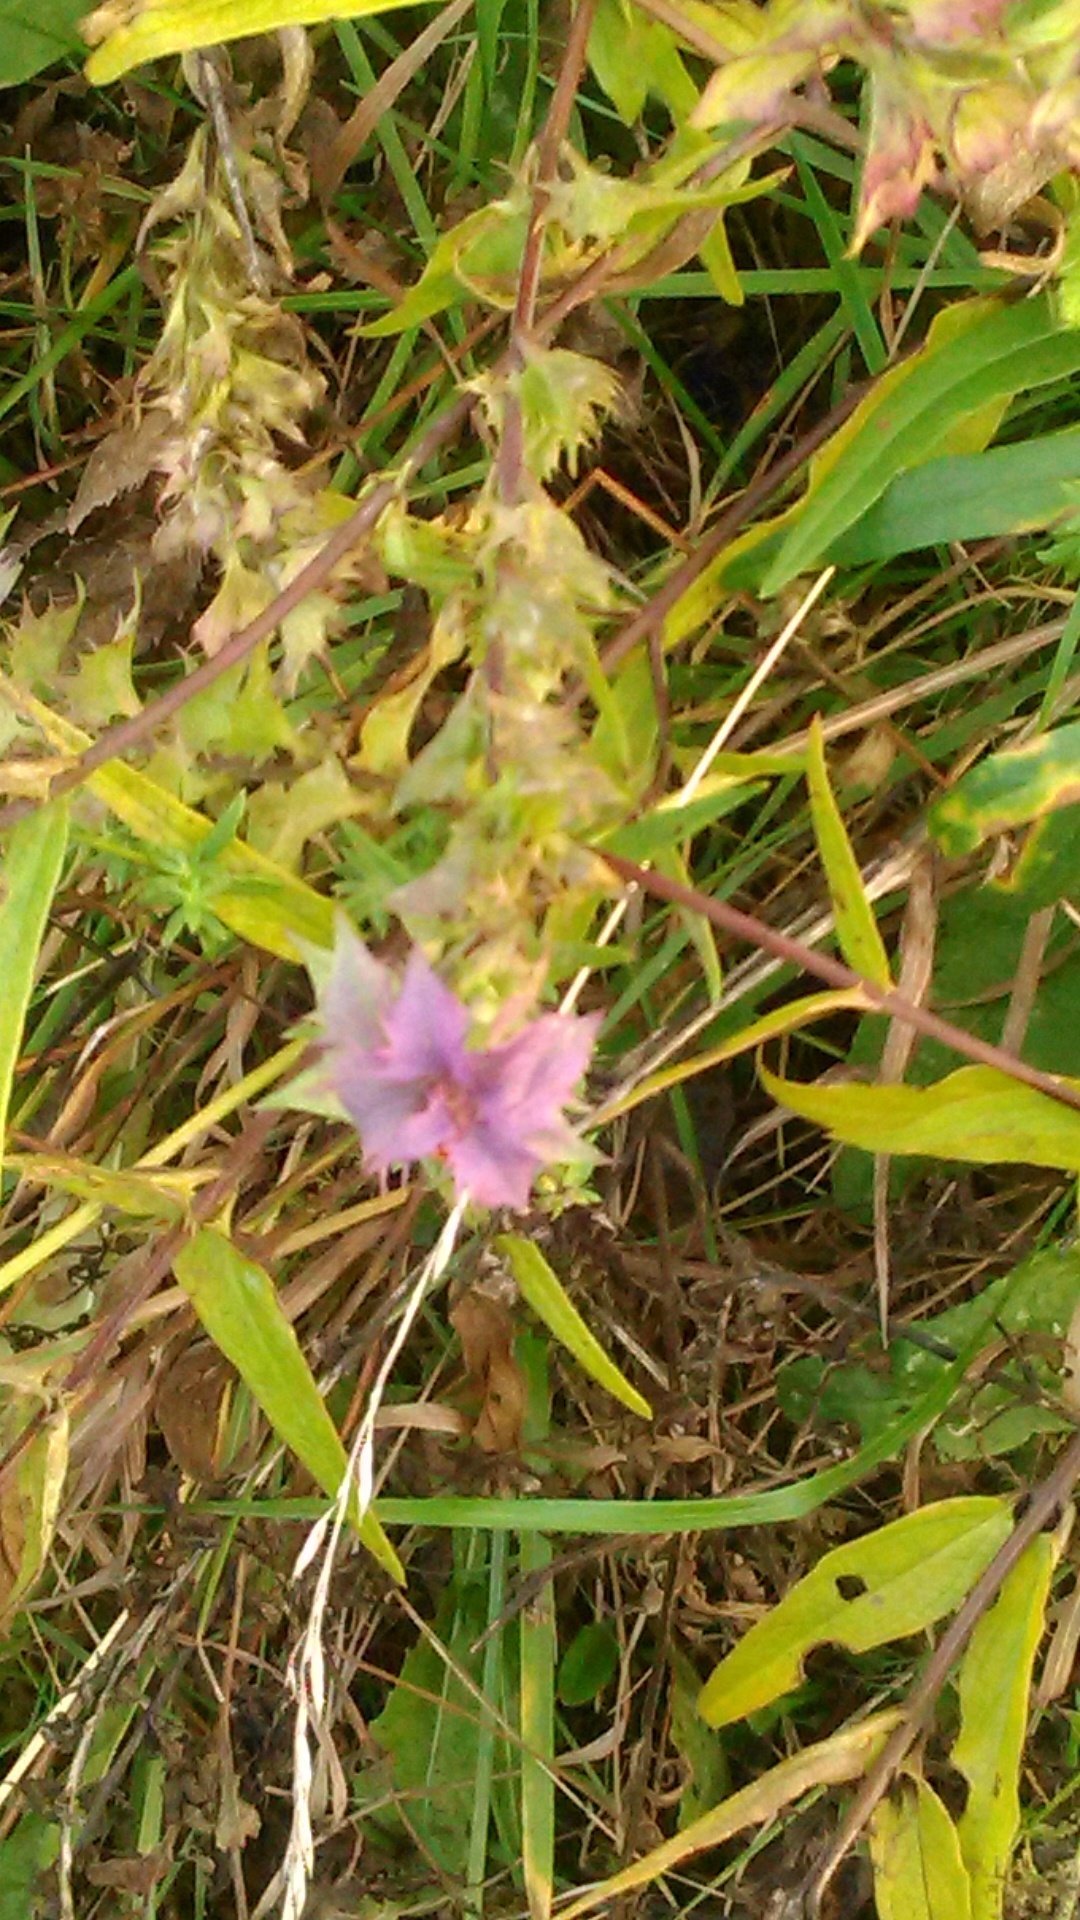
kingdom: Plantae
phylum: Tracheophyta
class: Magnoliopsida
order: Lamiales
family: Orobanchaceae
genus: Melampyrum
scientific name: Melampyrum nemorosum
